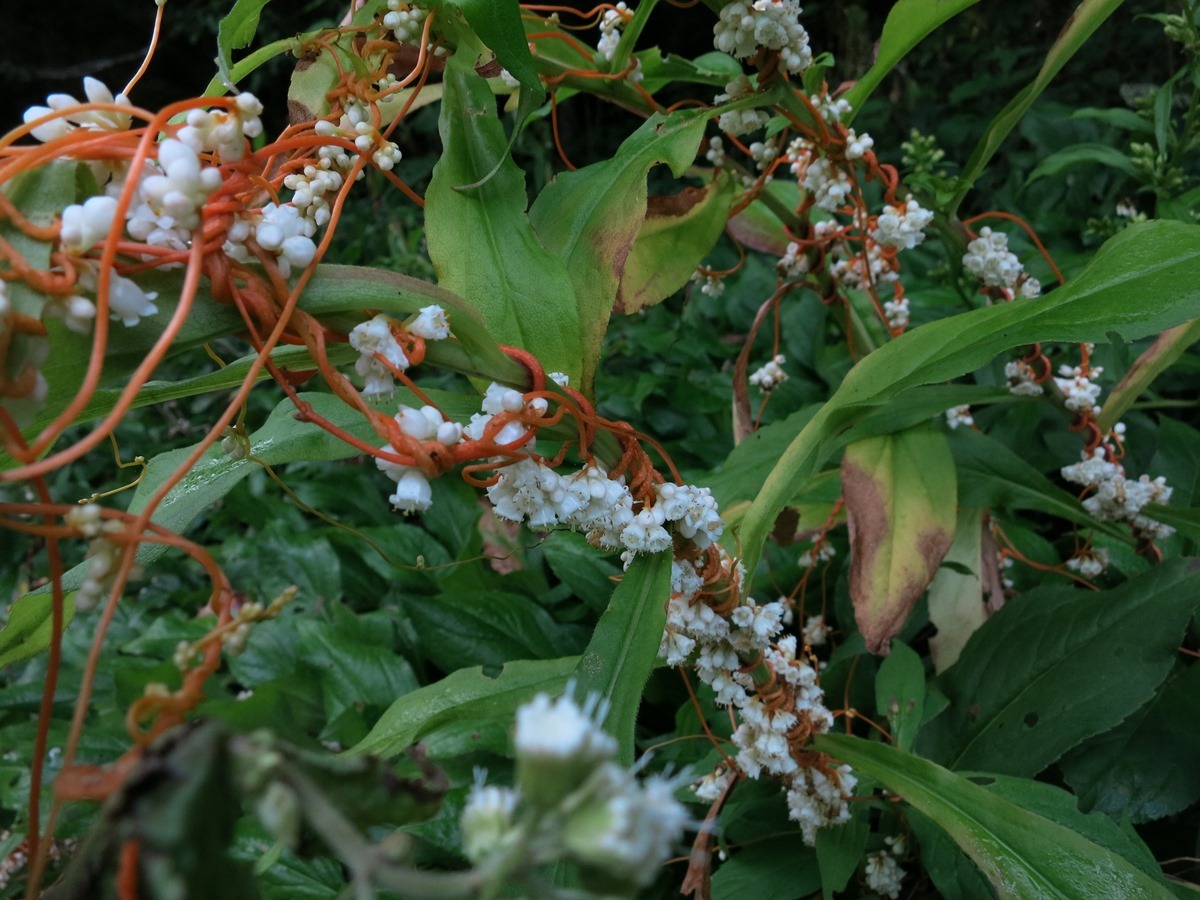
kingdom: Plantae
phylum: Tracheophyta
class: Magnoliopsida
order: Solanales
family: Convolvulaceae
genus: Cuscuta
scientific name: Cuscuta rostrata
